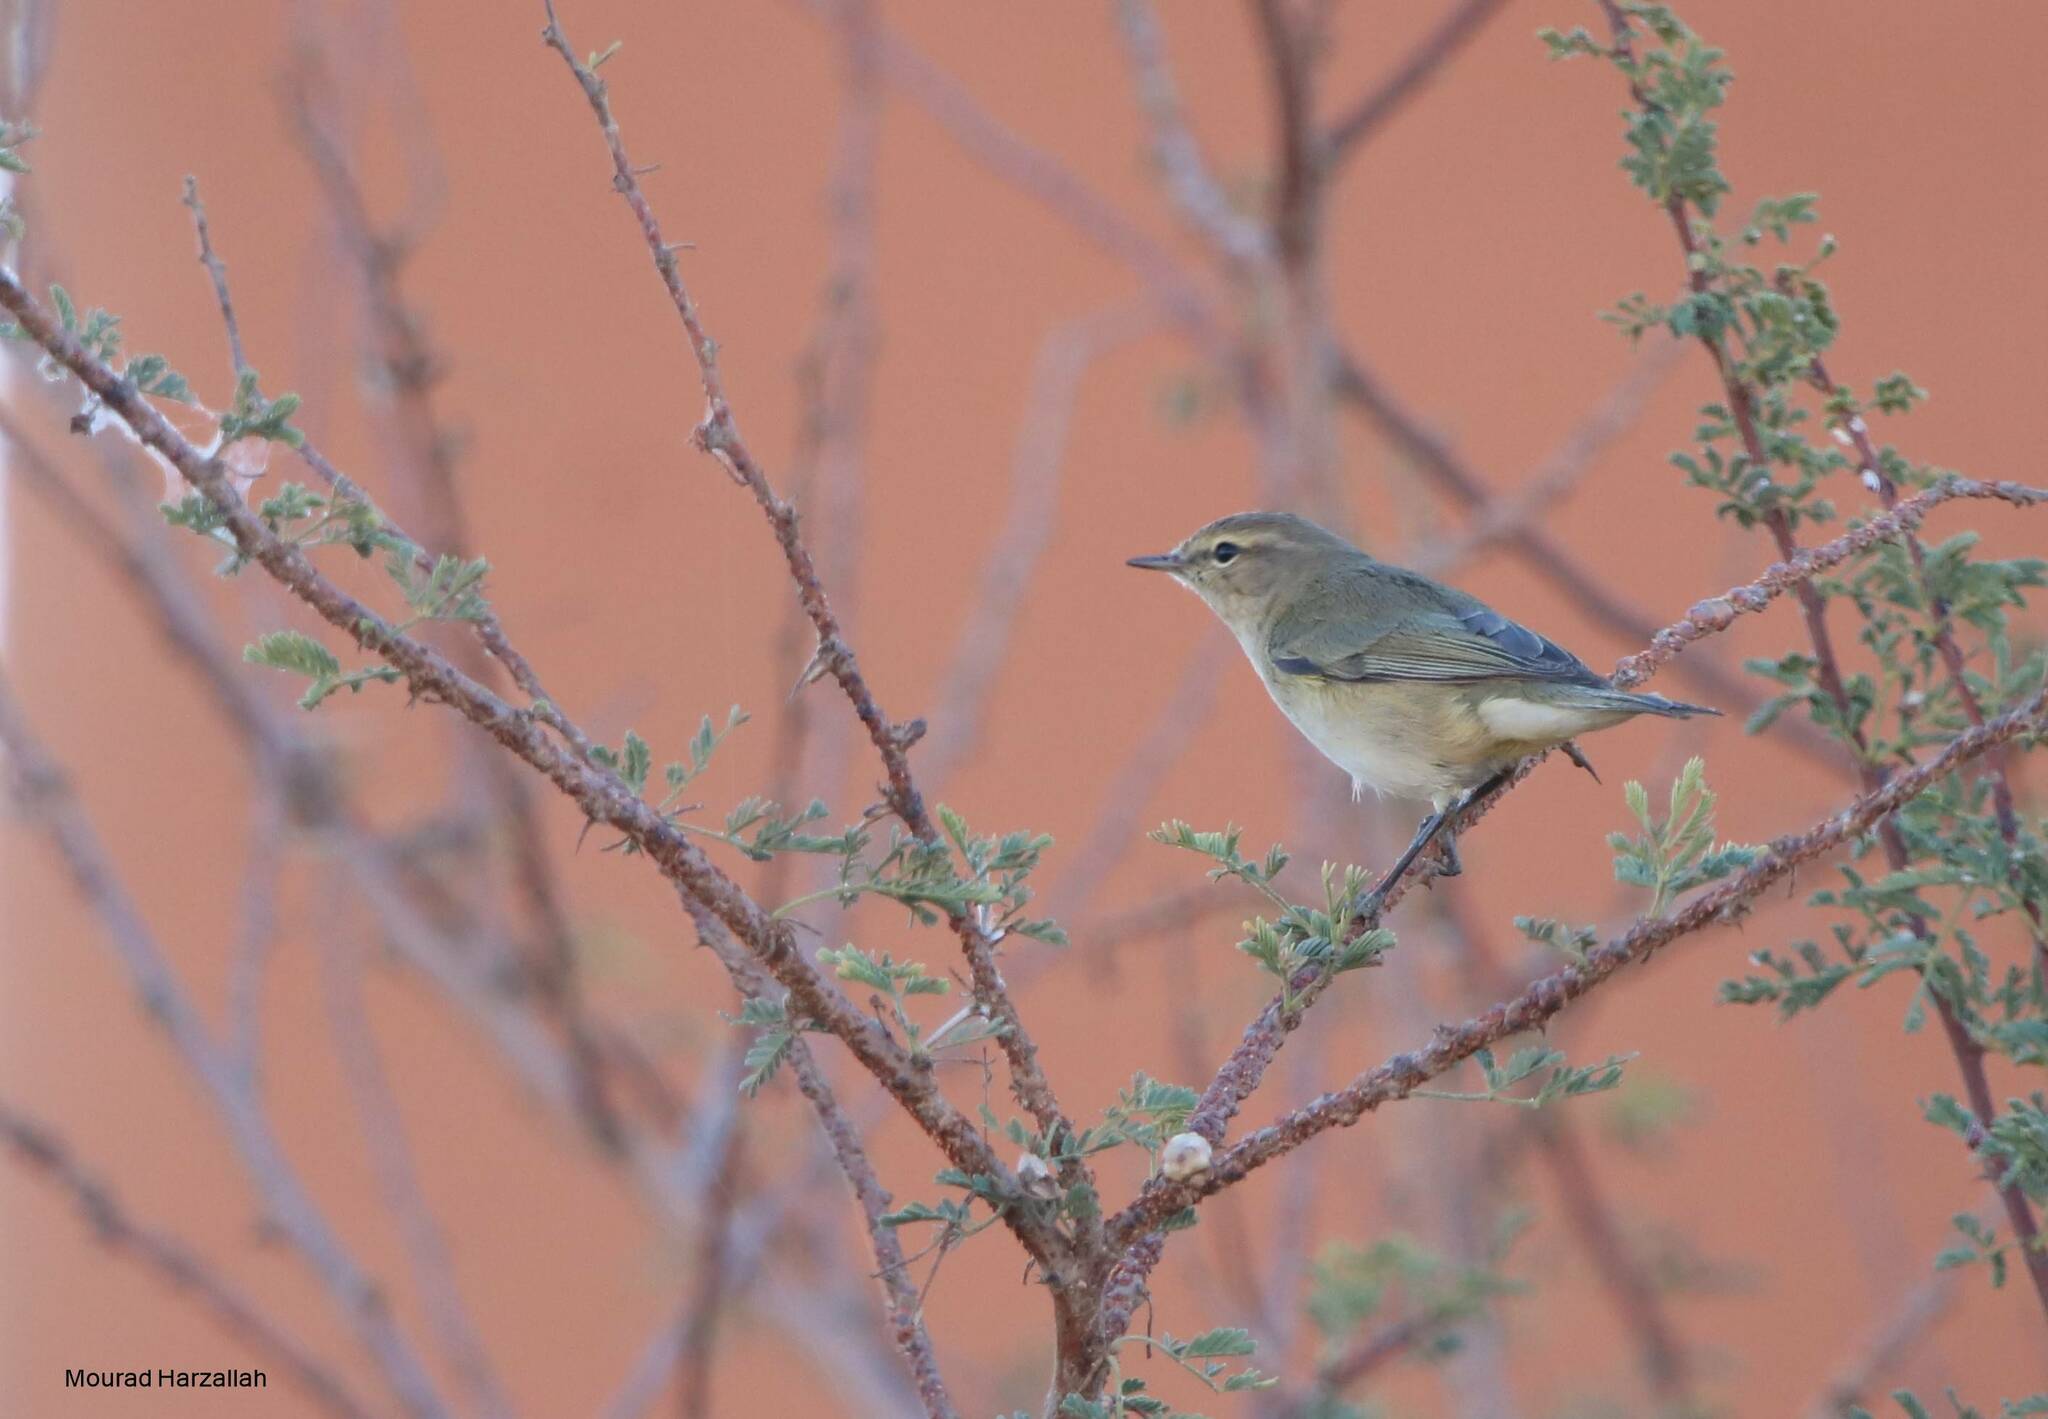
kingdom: Animalia
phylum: Chordata
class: Aves
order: Passeriformes
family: Phylloscopidae
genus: Phylloscopus
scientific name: Phylloscopus collybita
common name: Common chiffchaff
